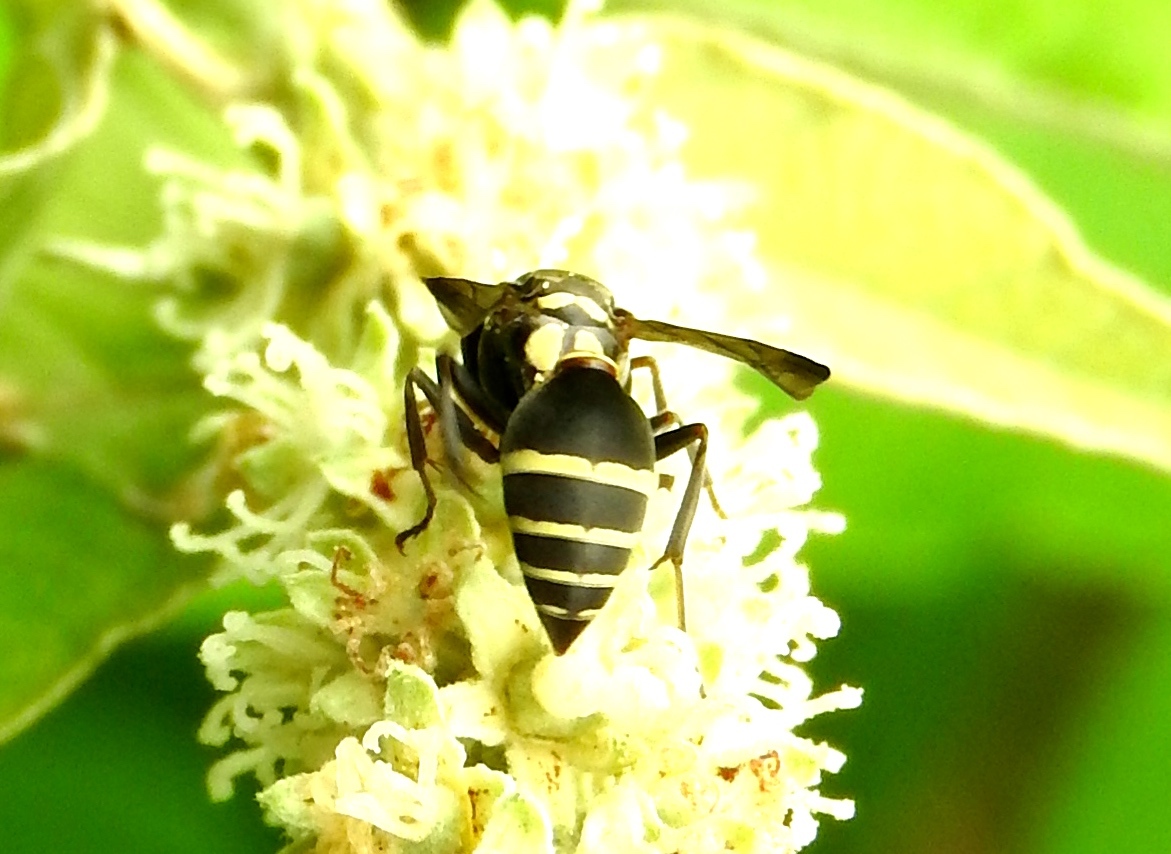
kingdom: Animalia
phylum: Arthropoda
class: Insecta
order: Hymenoptera
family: Vespidae
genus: Myrapetra
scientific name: Myrapetra
